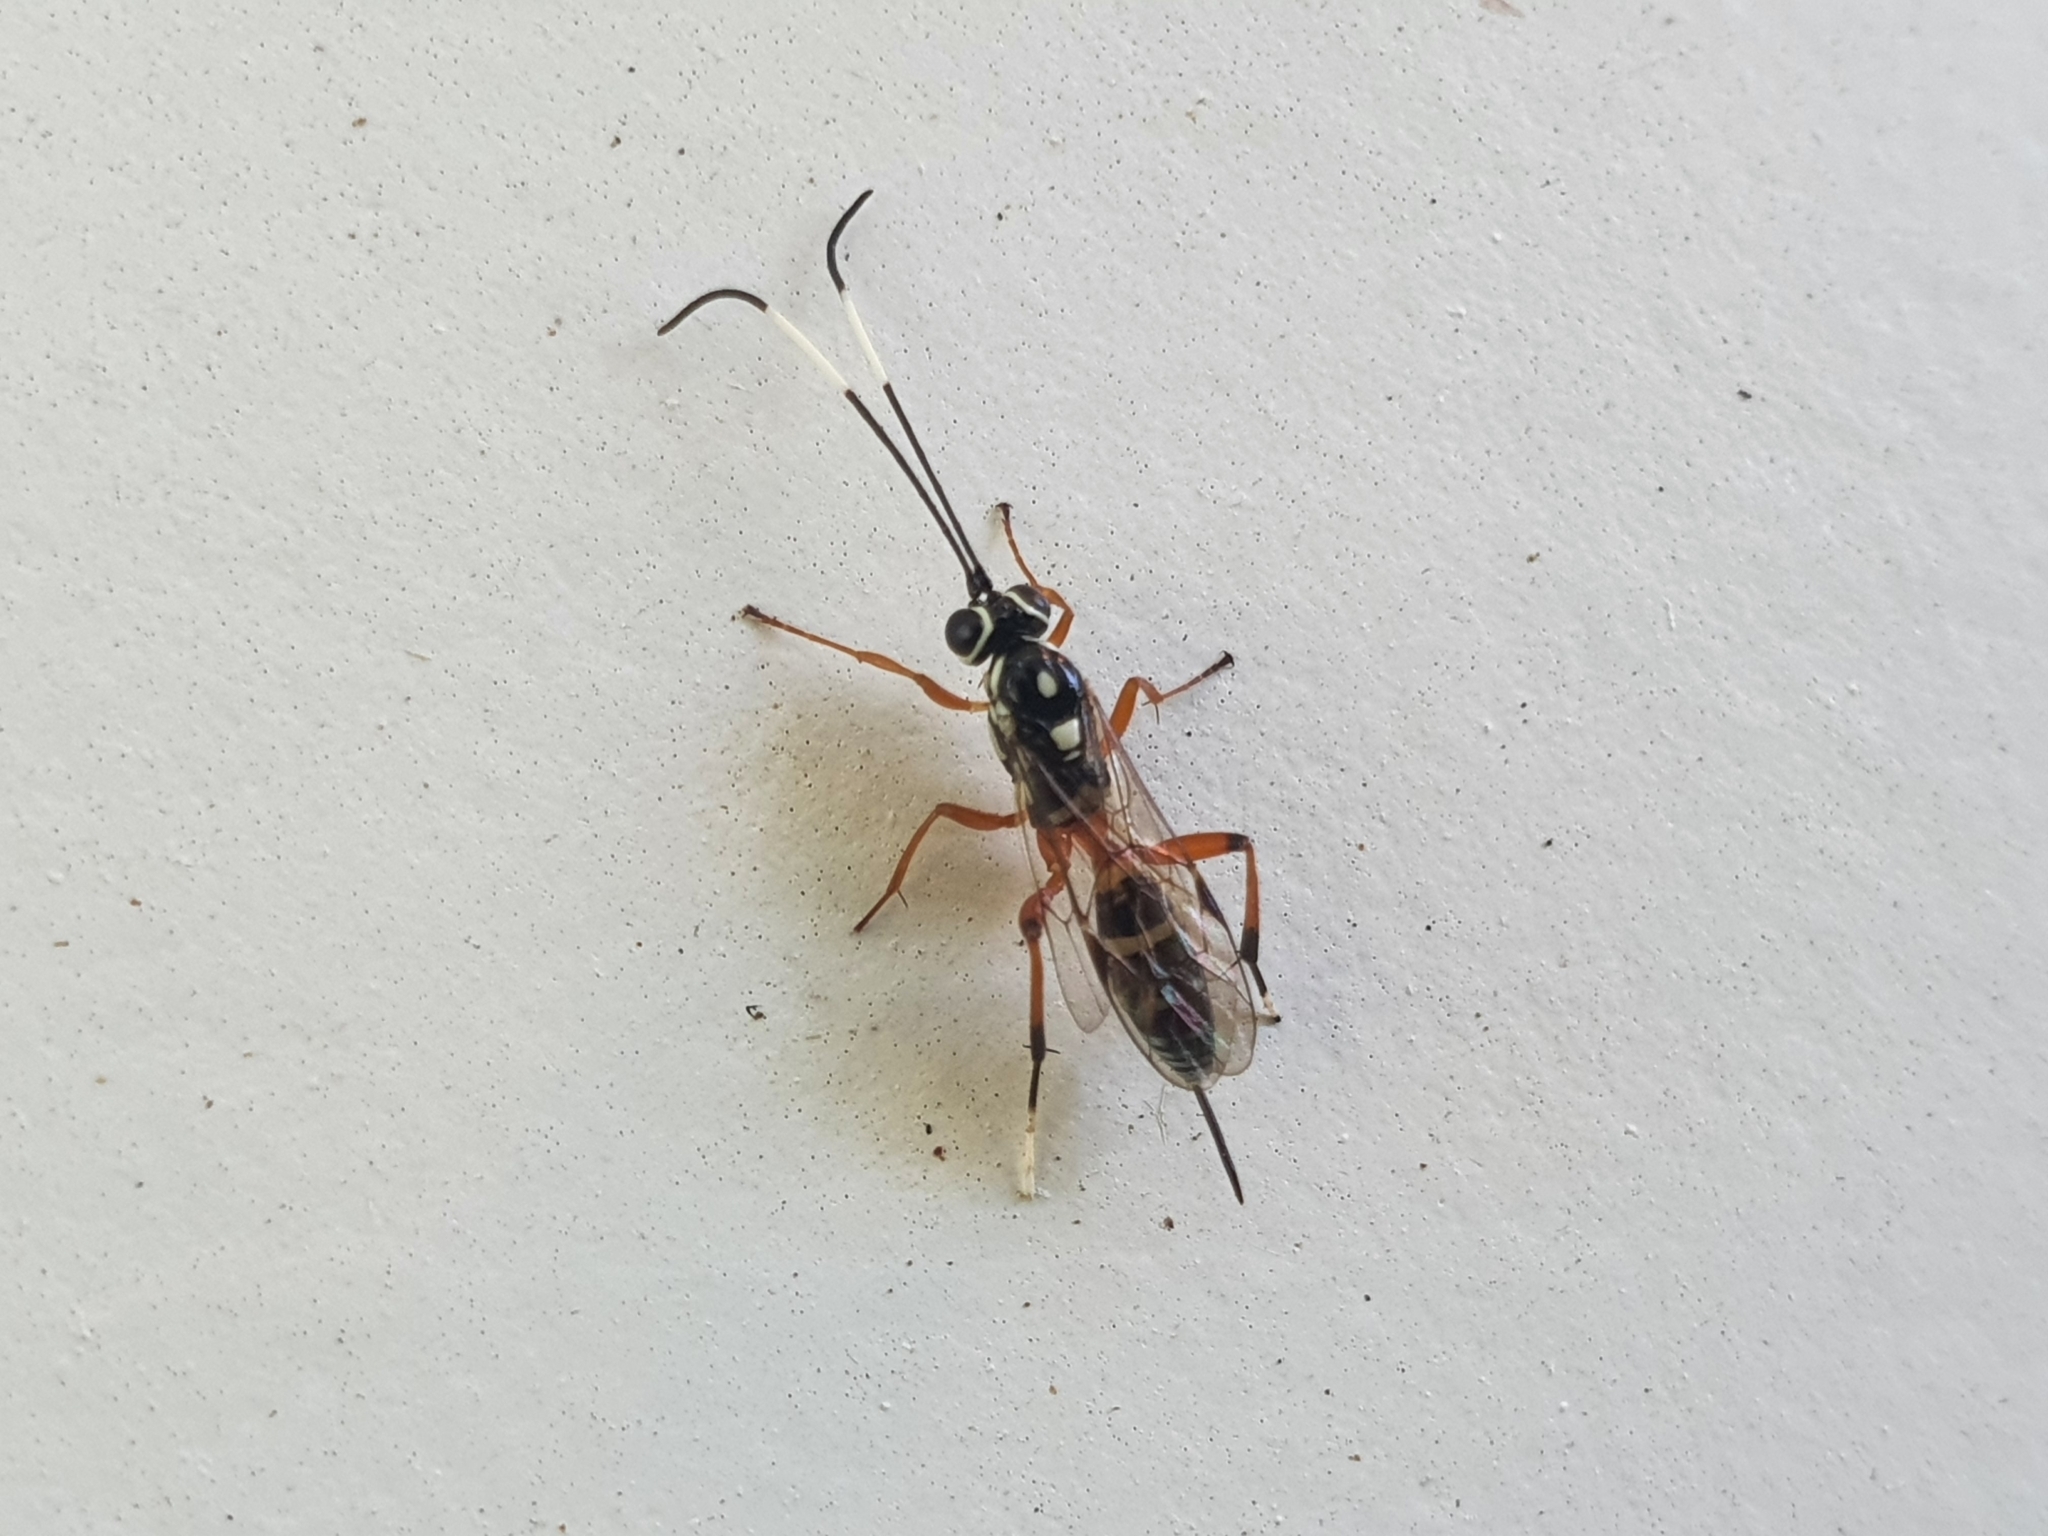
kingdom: Animalia
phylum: Arthropoda
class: Insecta
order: Hymenoptera
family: Ichneumonidae
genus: Glabridorsum
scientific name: Glabridorsum stokesii
